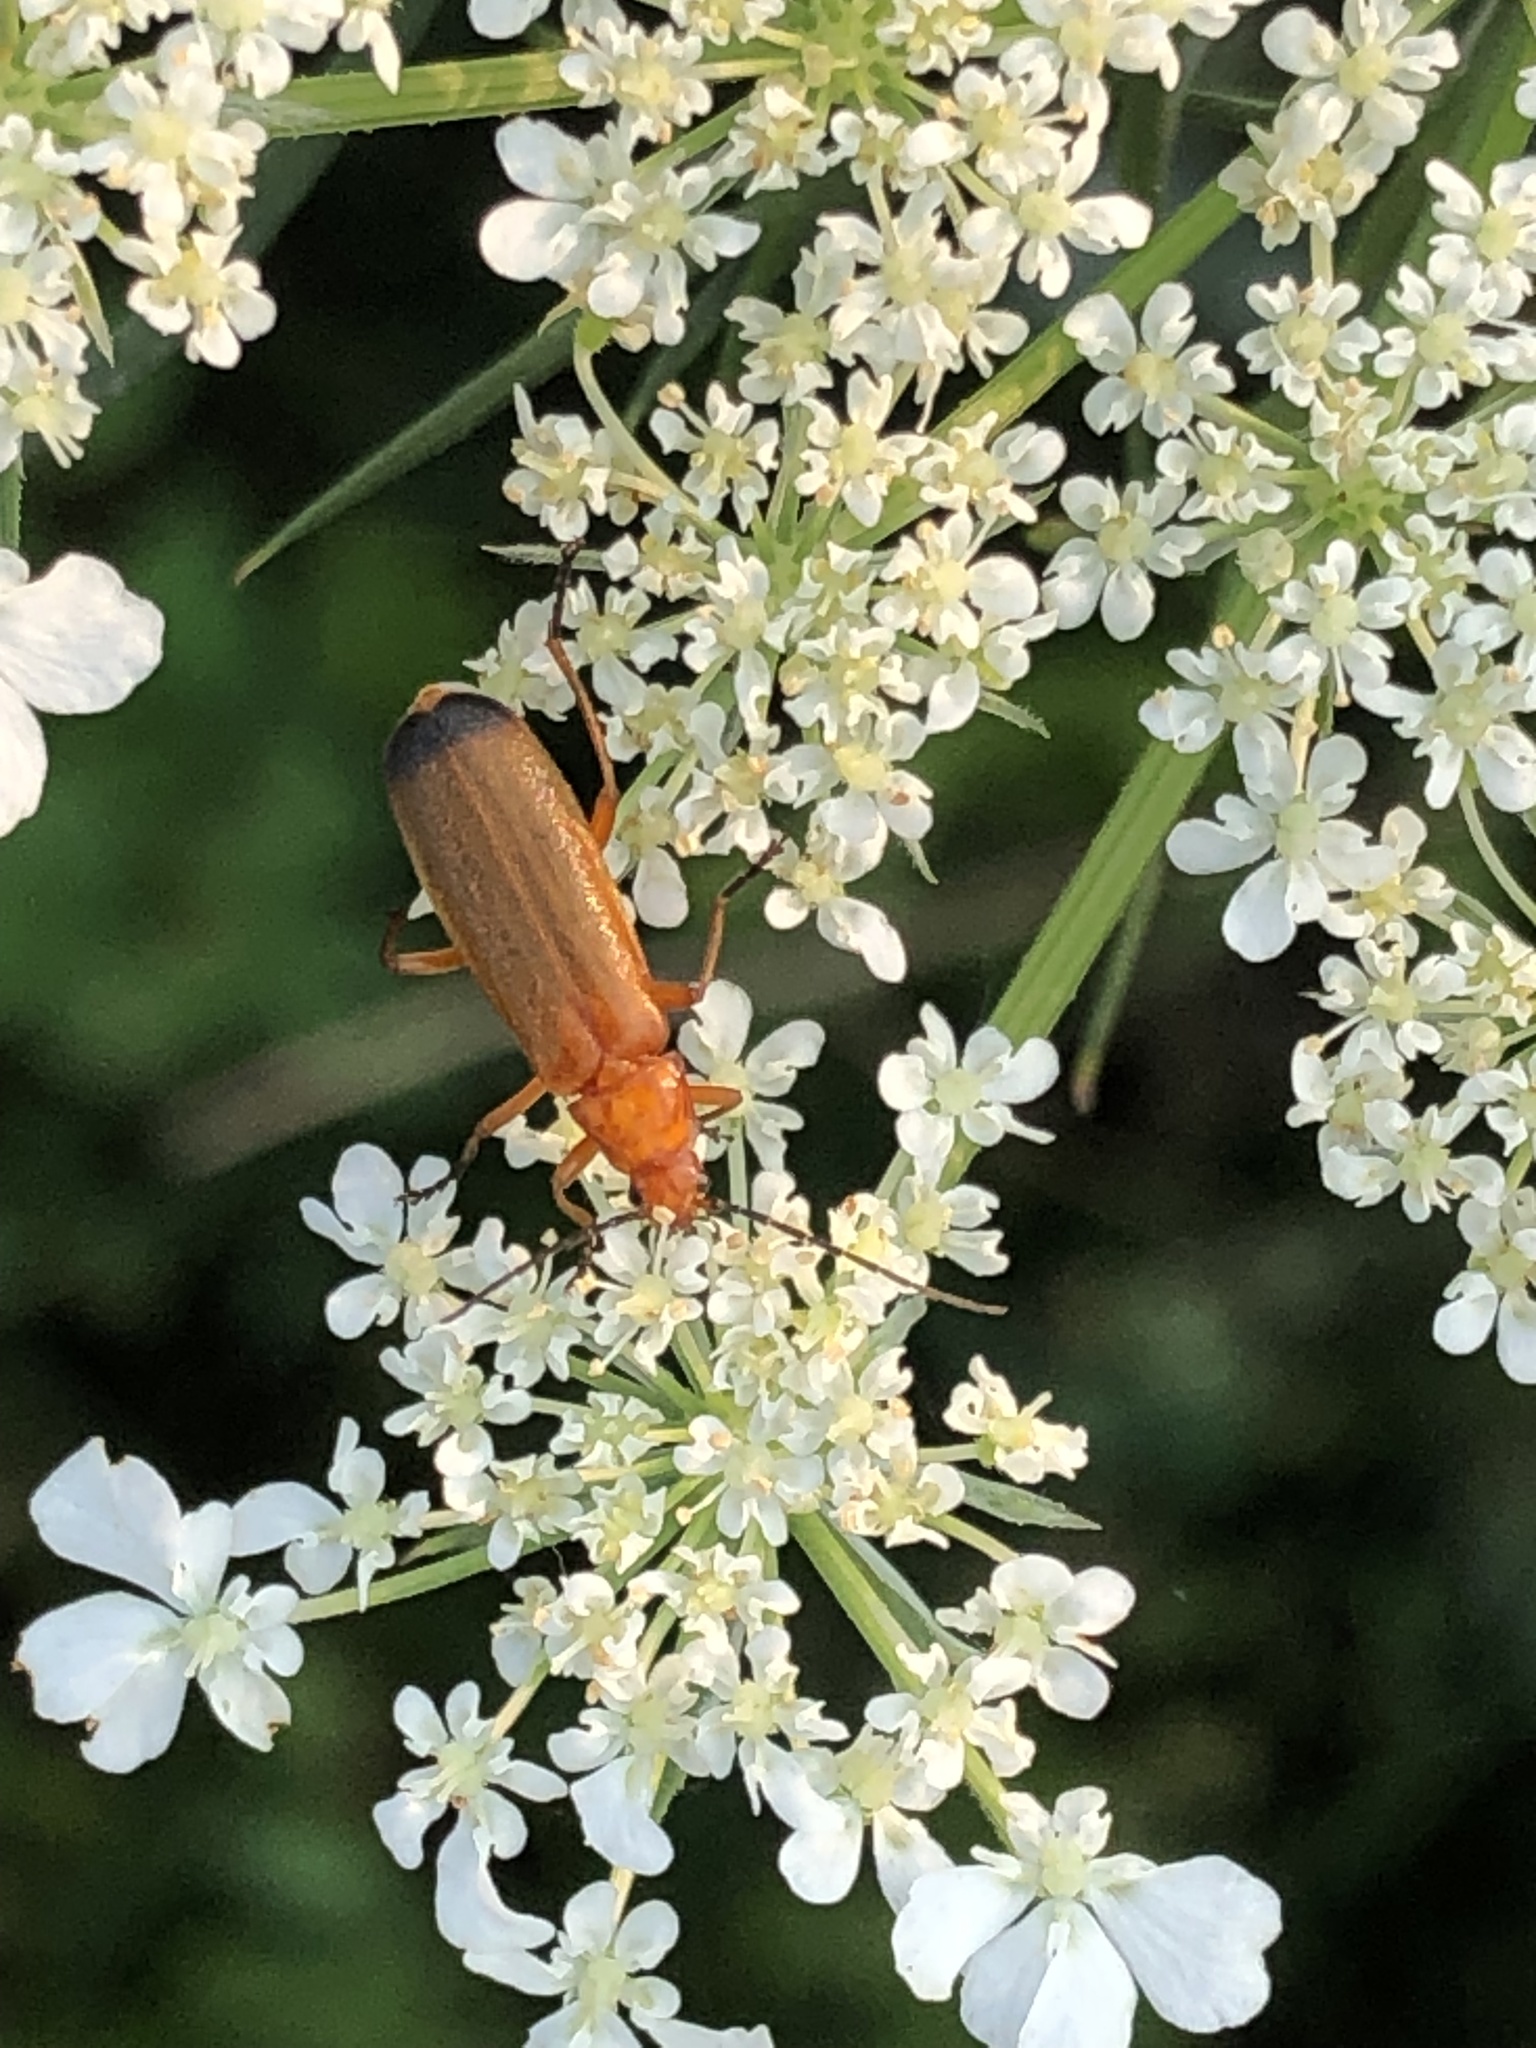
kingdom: Animalia
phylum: Arthropoda
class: Insecta
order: Coleoptera
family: Cantharidae
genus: Rhagonycha
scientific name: Rhagonycha fulva
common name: Common red soldier beetle
